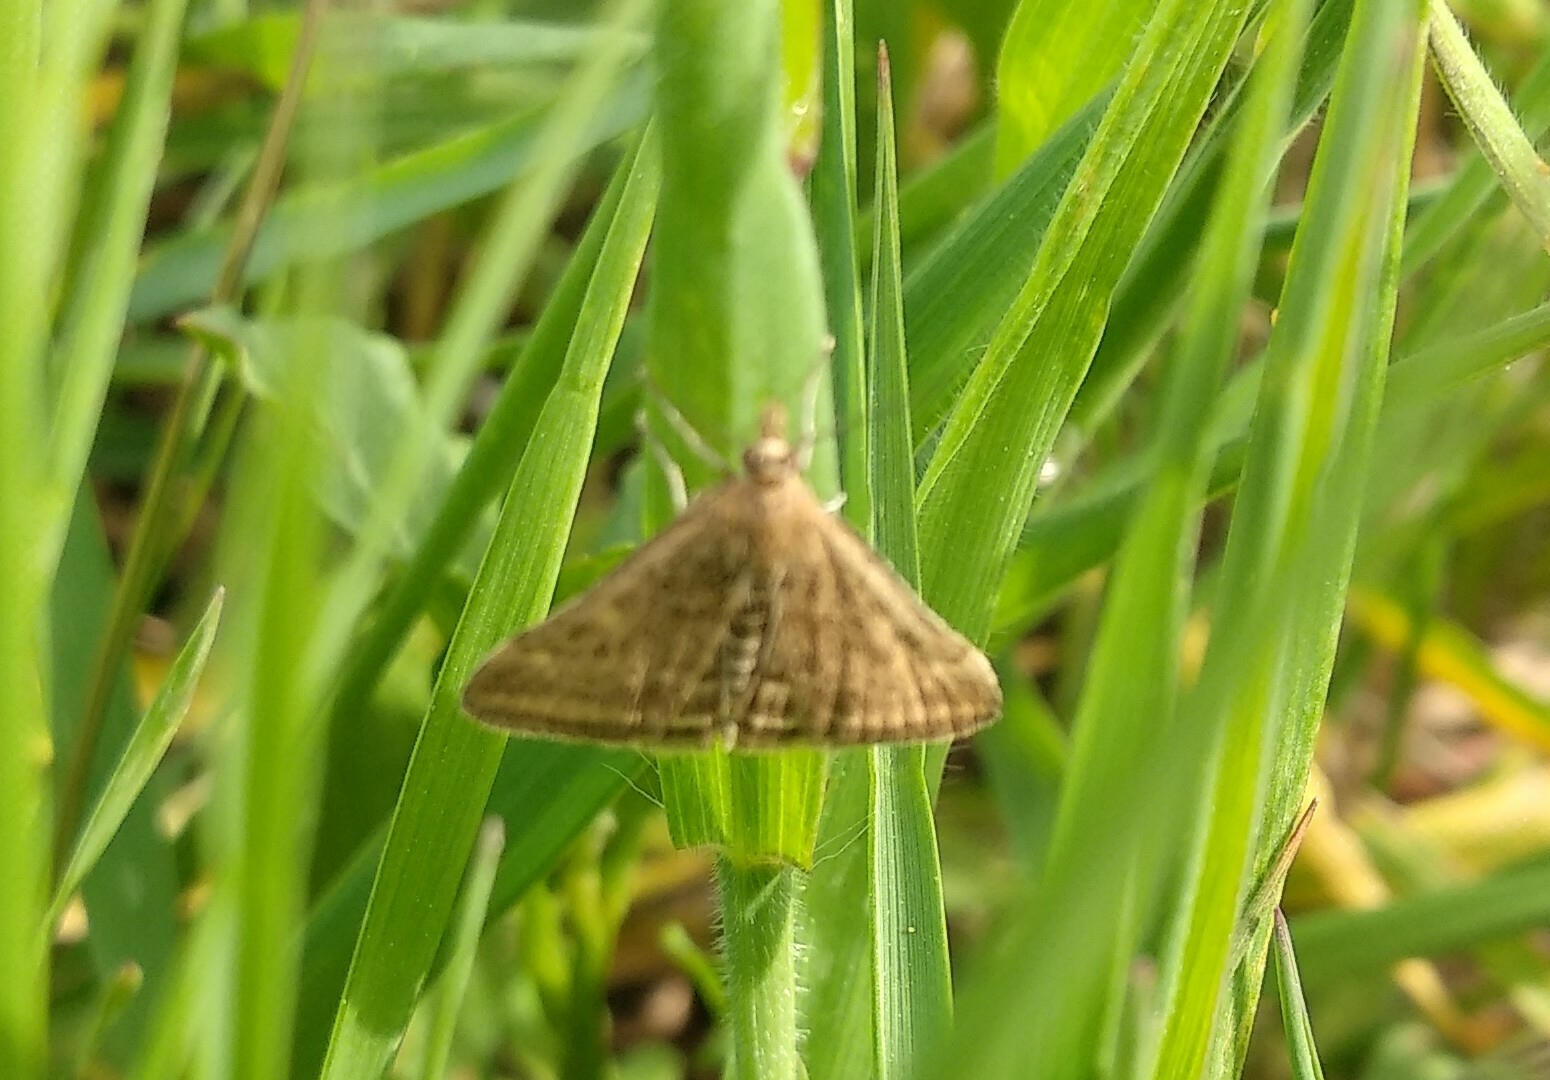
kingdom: Animalia
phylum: Arthropoda
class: Insecta
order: Lepidoptera
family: Crambidae
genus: Pyrausta
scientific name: Pyrausta despicata
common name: Straw-barred pearl
